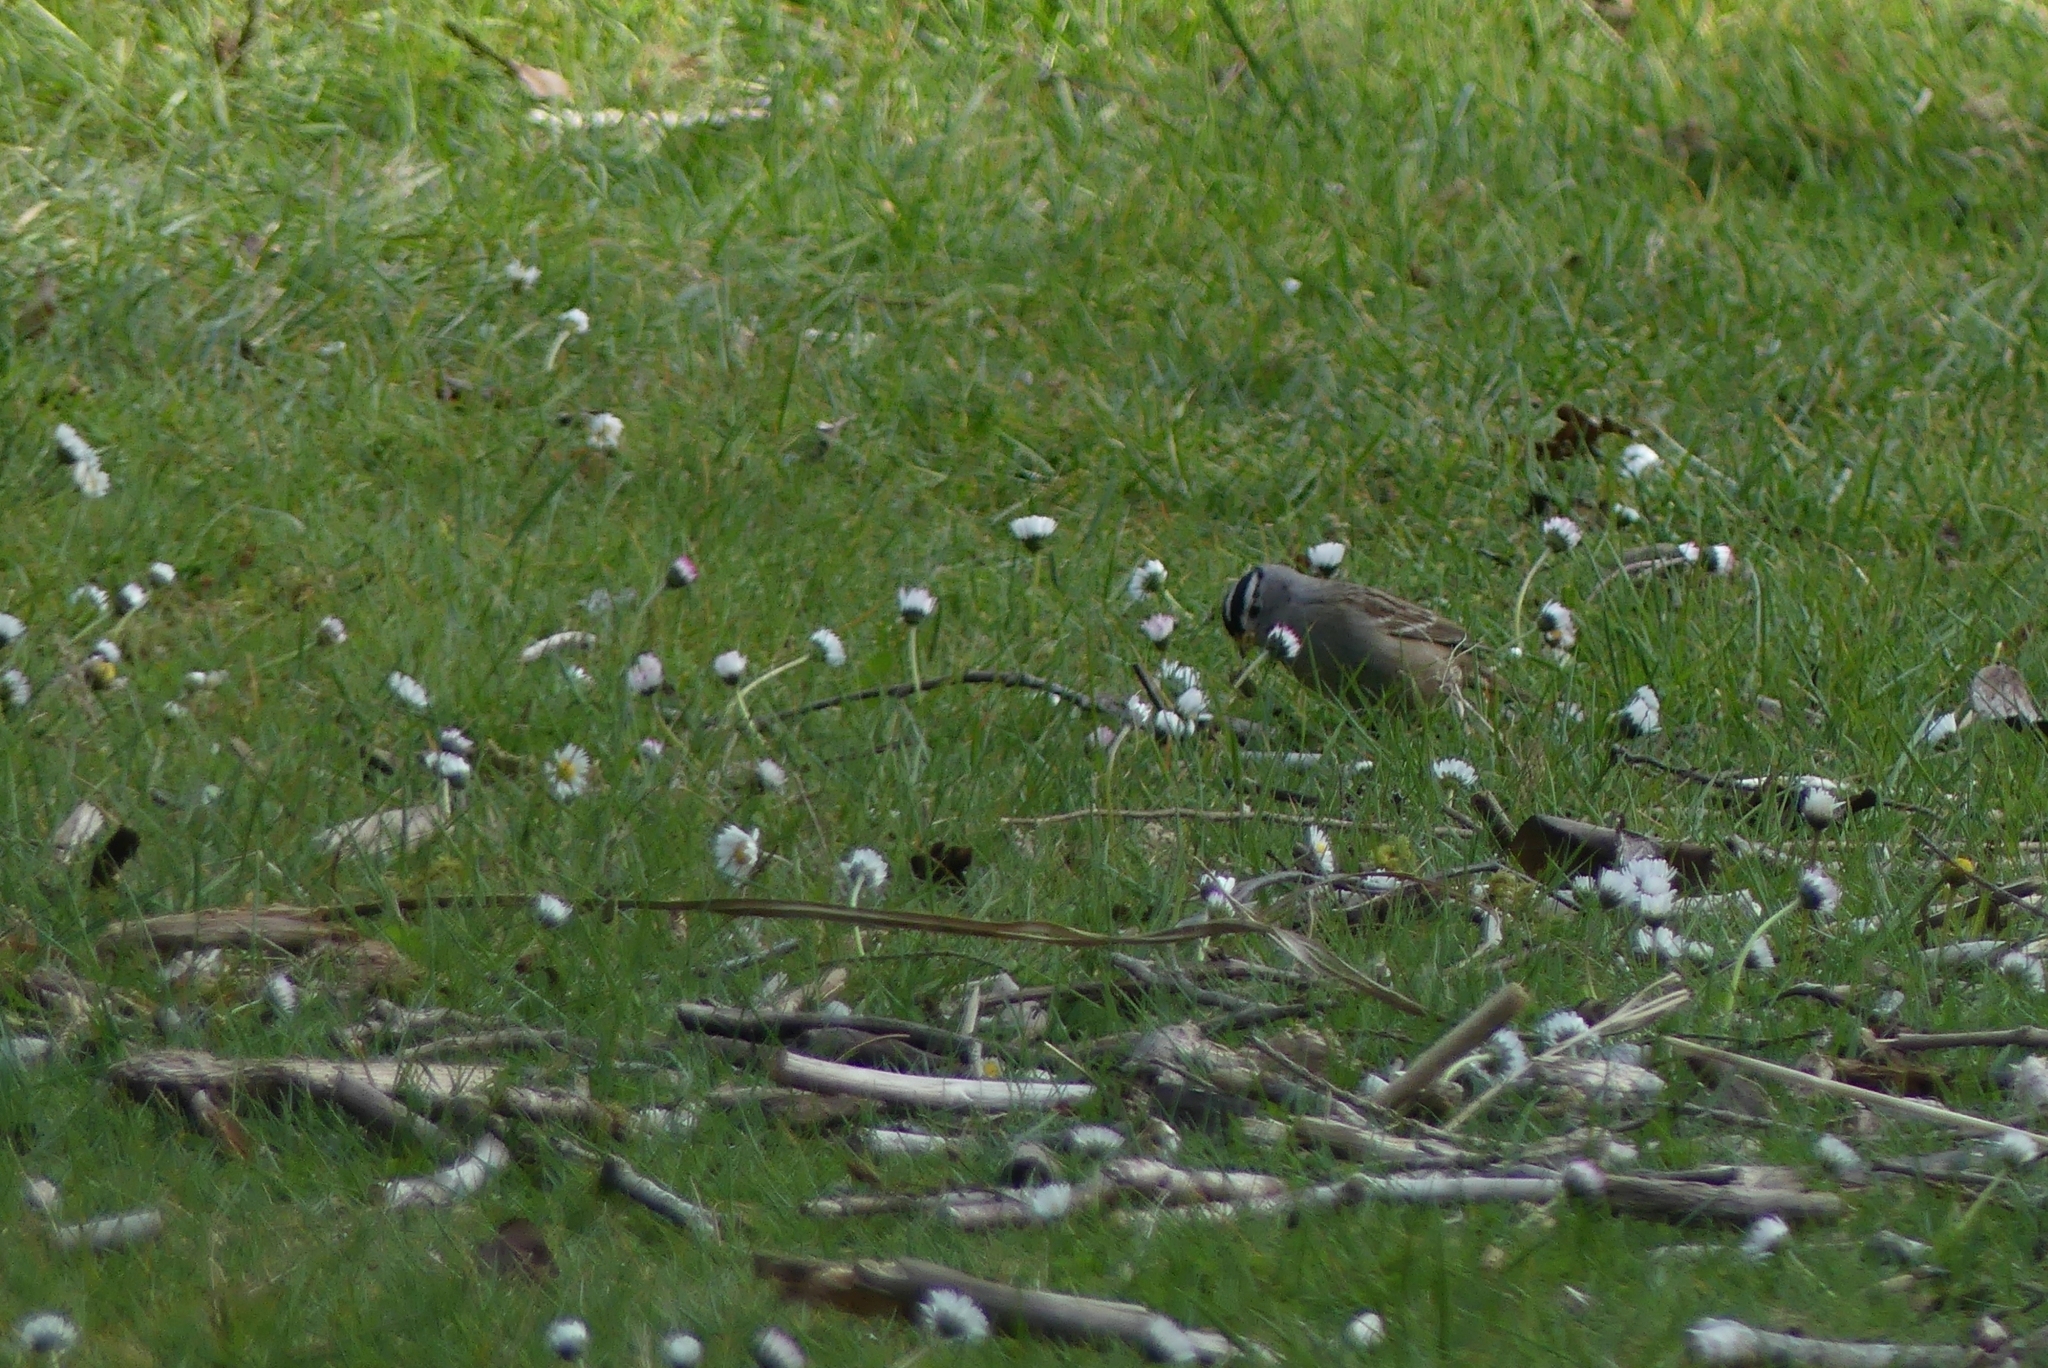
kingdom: Animalia
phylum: Chordata
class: Aves
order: Passeriformes
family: Passerellidae
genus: Zonotrichia
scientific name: Zonotrichia leucophrys
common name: White-crowned sparrow
